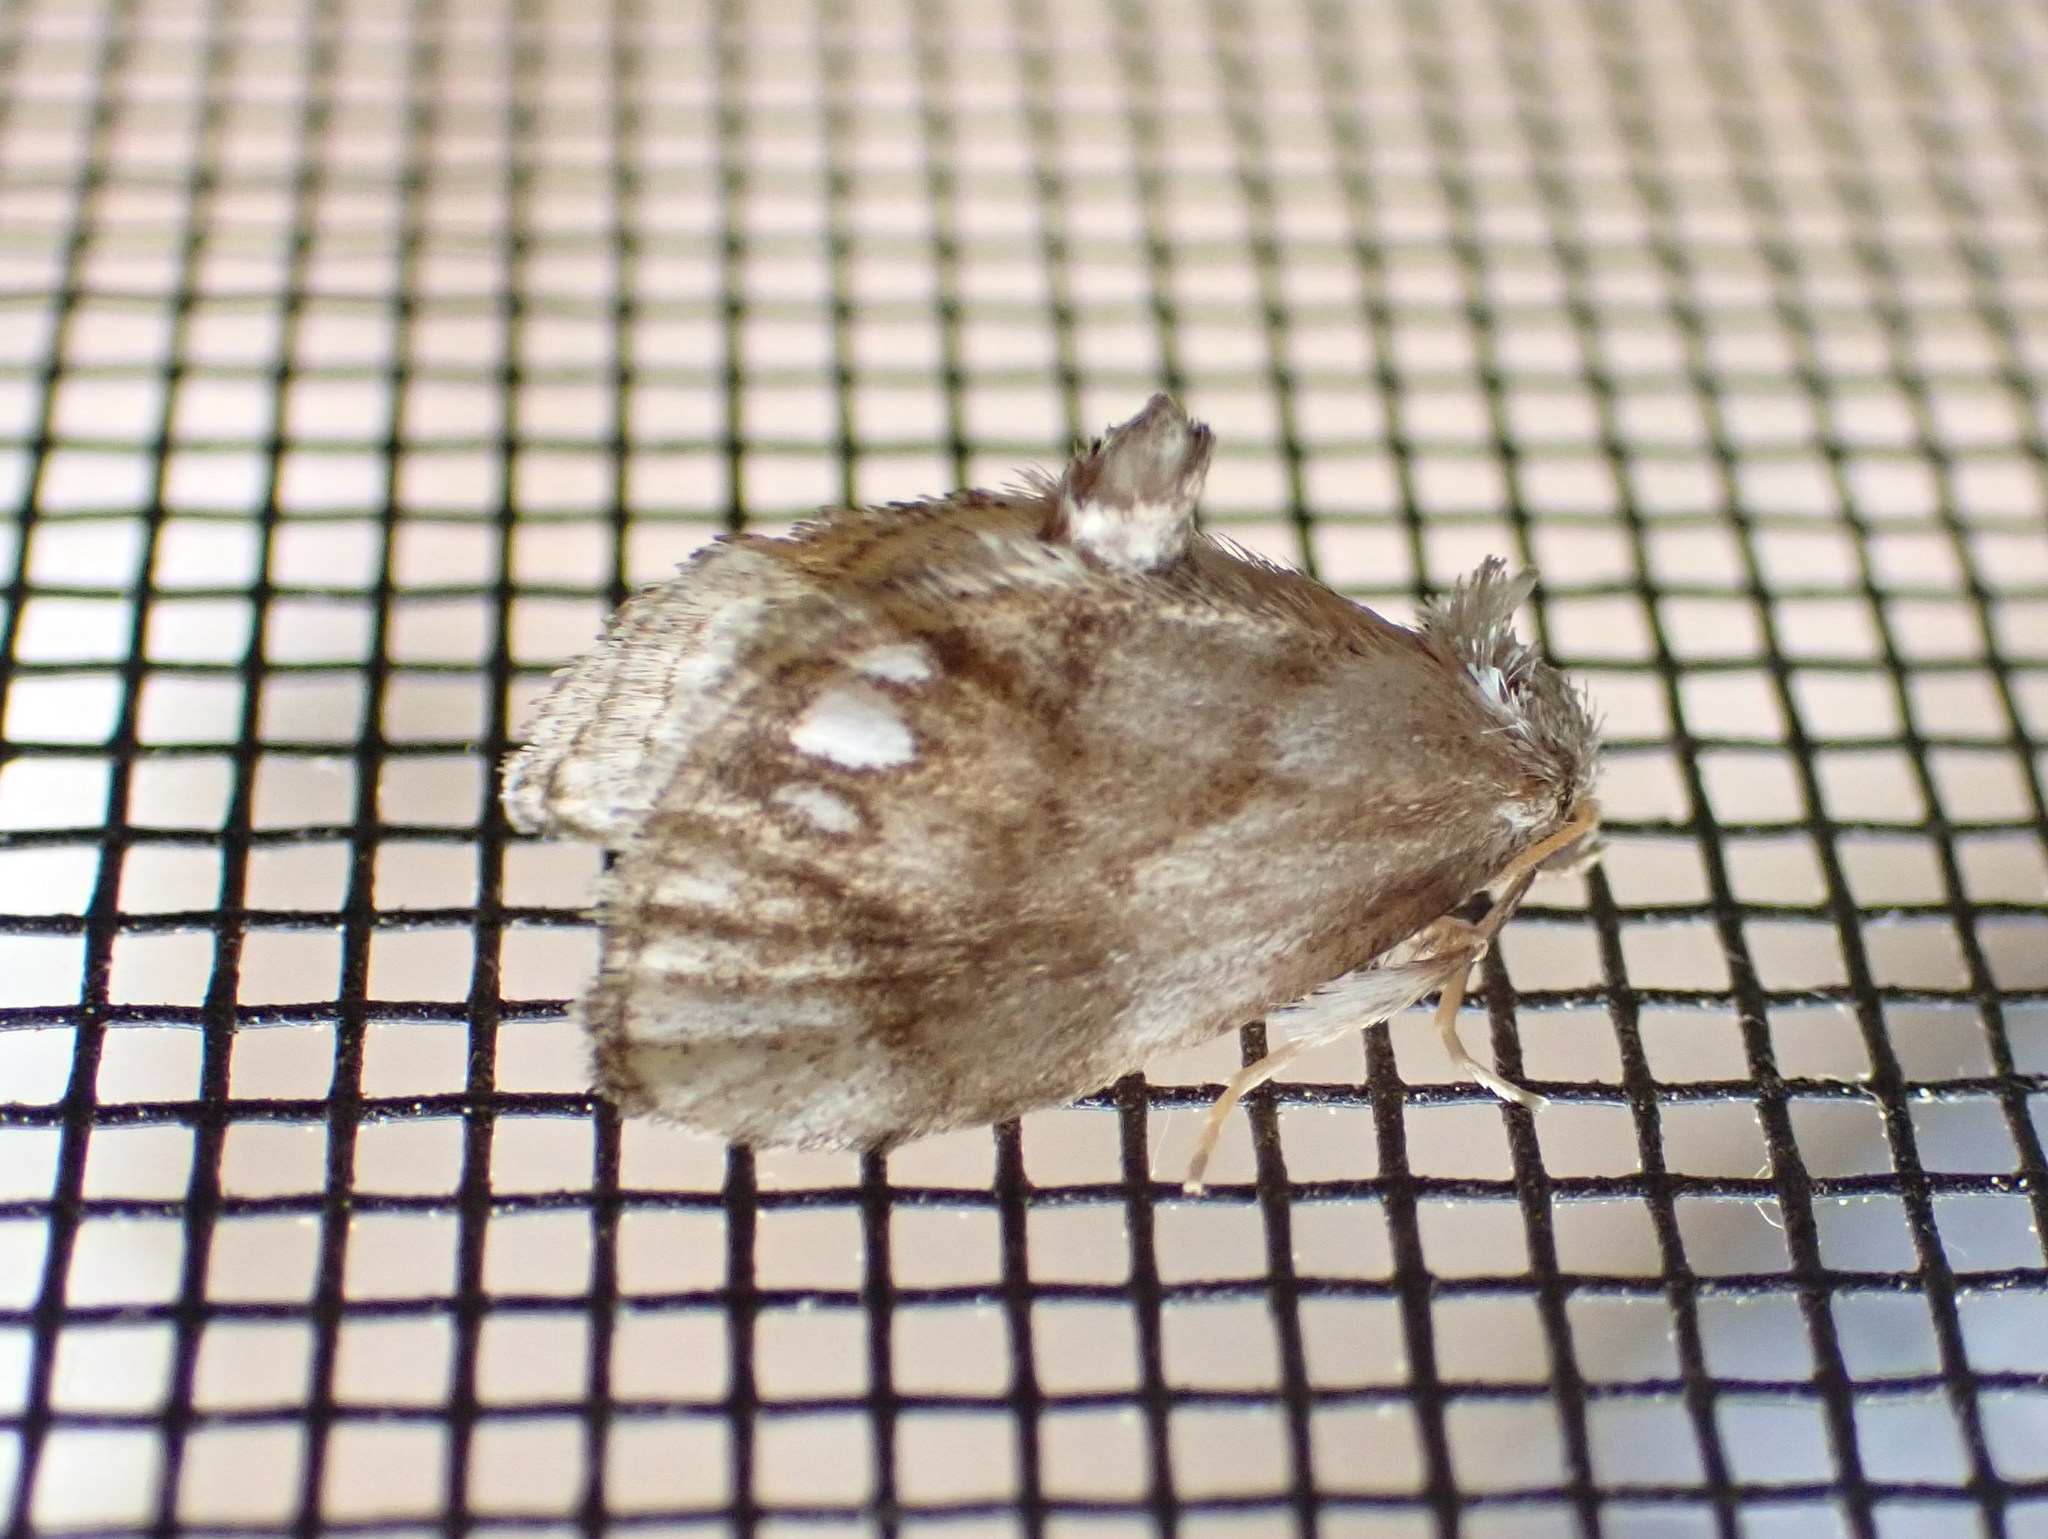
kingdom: Animalia
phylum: Arthropoda
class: Insecta
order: Lepidoptera
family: Limacodidae
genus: Packardia
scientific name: Packardia geminata
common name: Jeweled tailed slug moth
